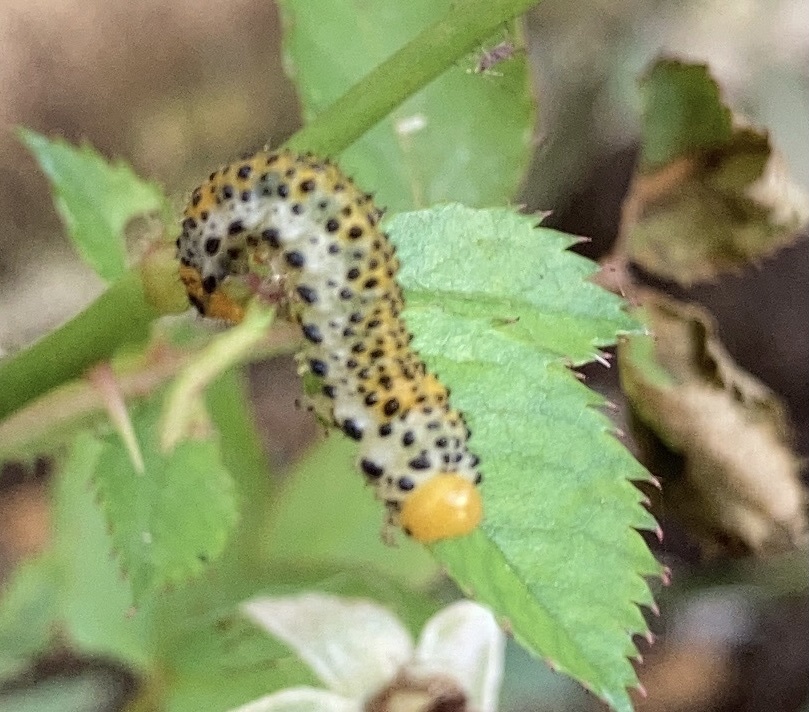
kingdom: Animalia
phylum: Arthropoda
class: Insecta
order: Hymenoptera
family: Argidae
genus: Arge
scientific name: Arge ochropus
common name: Argid sawfly
